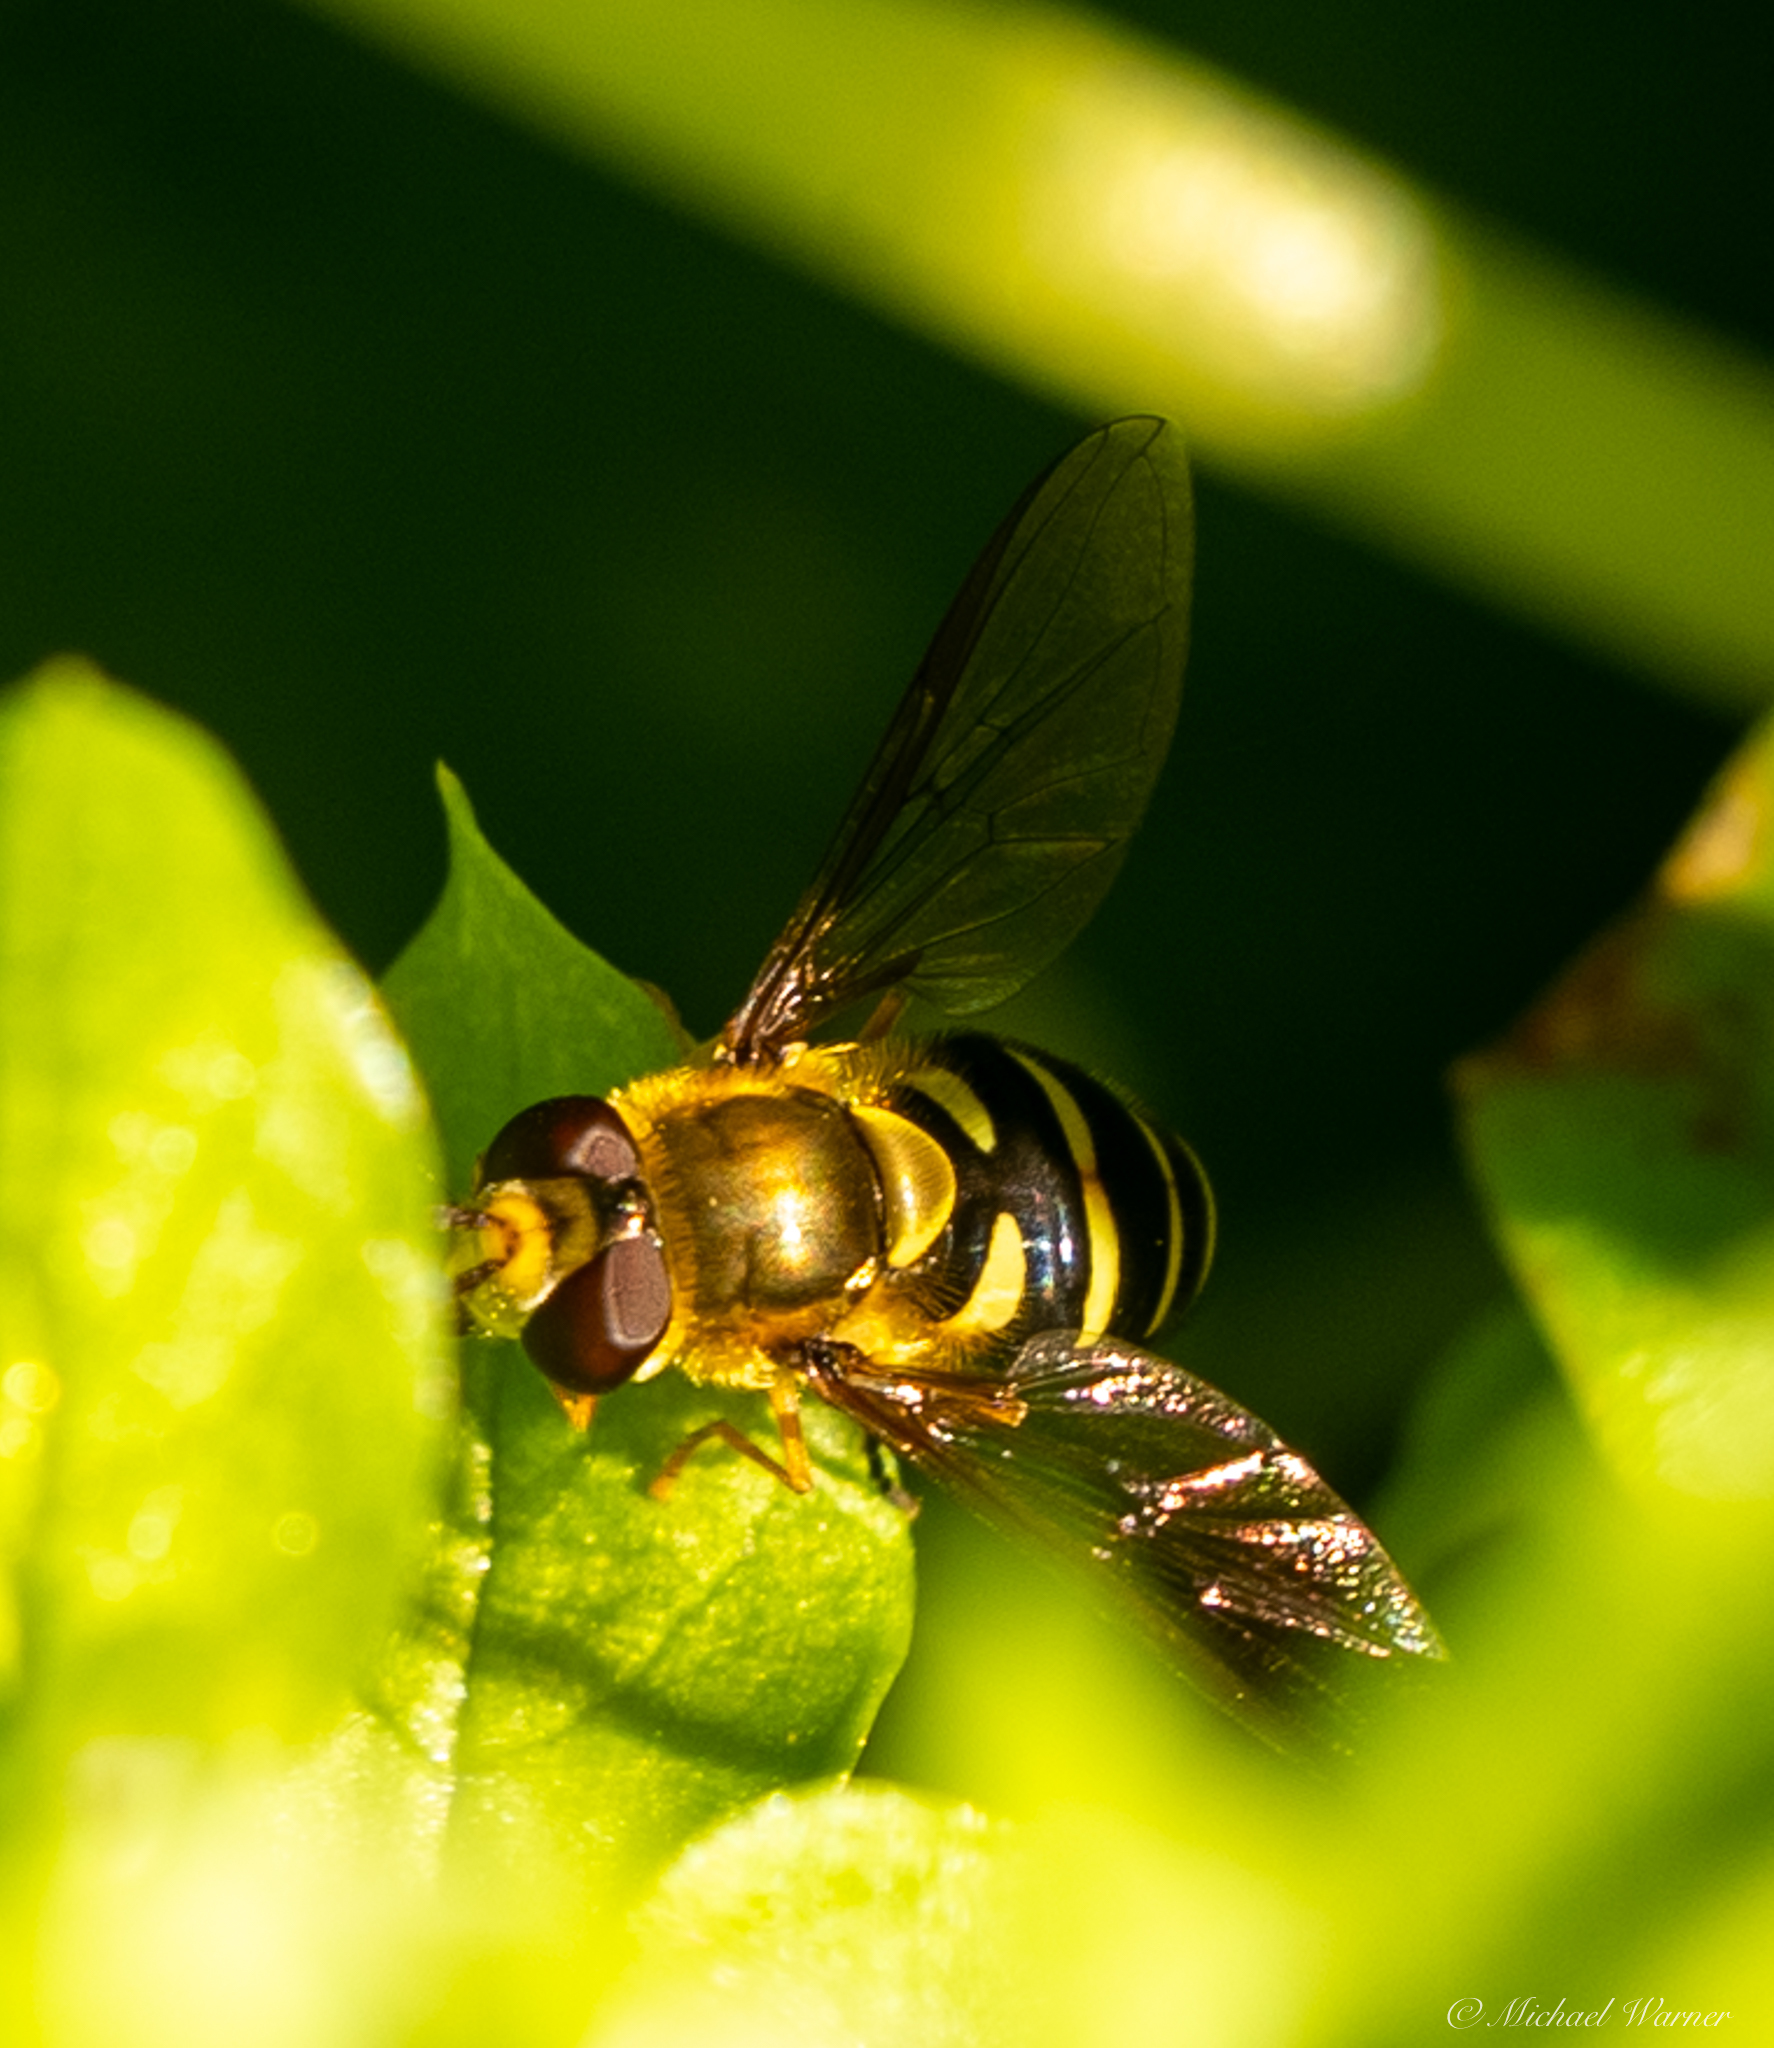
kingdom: Animalia
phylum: Arthropoda
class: Insecta
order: Diptera
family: Syrphidae
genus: Syrphus
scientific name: Syrphus opinator
